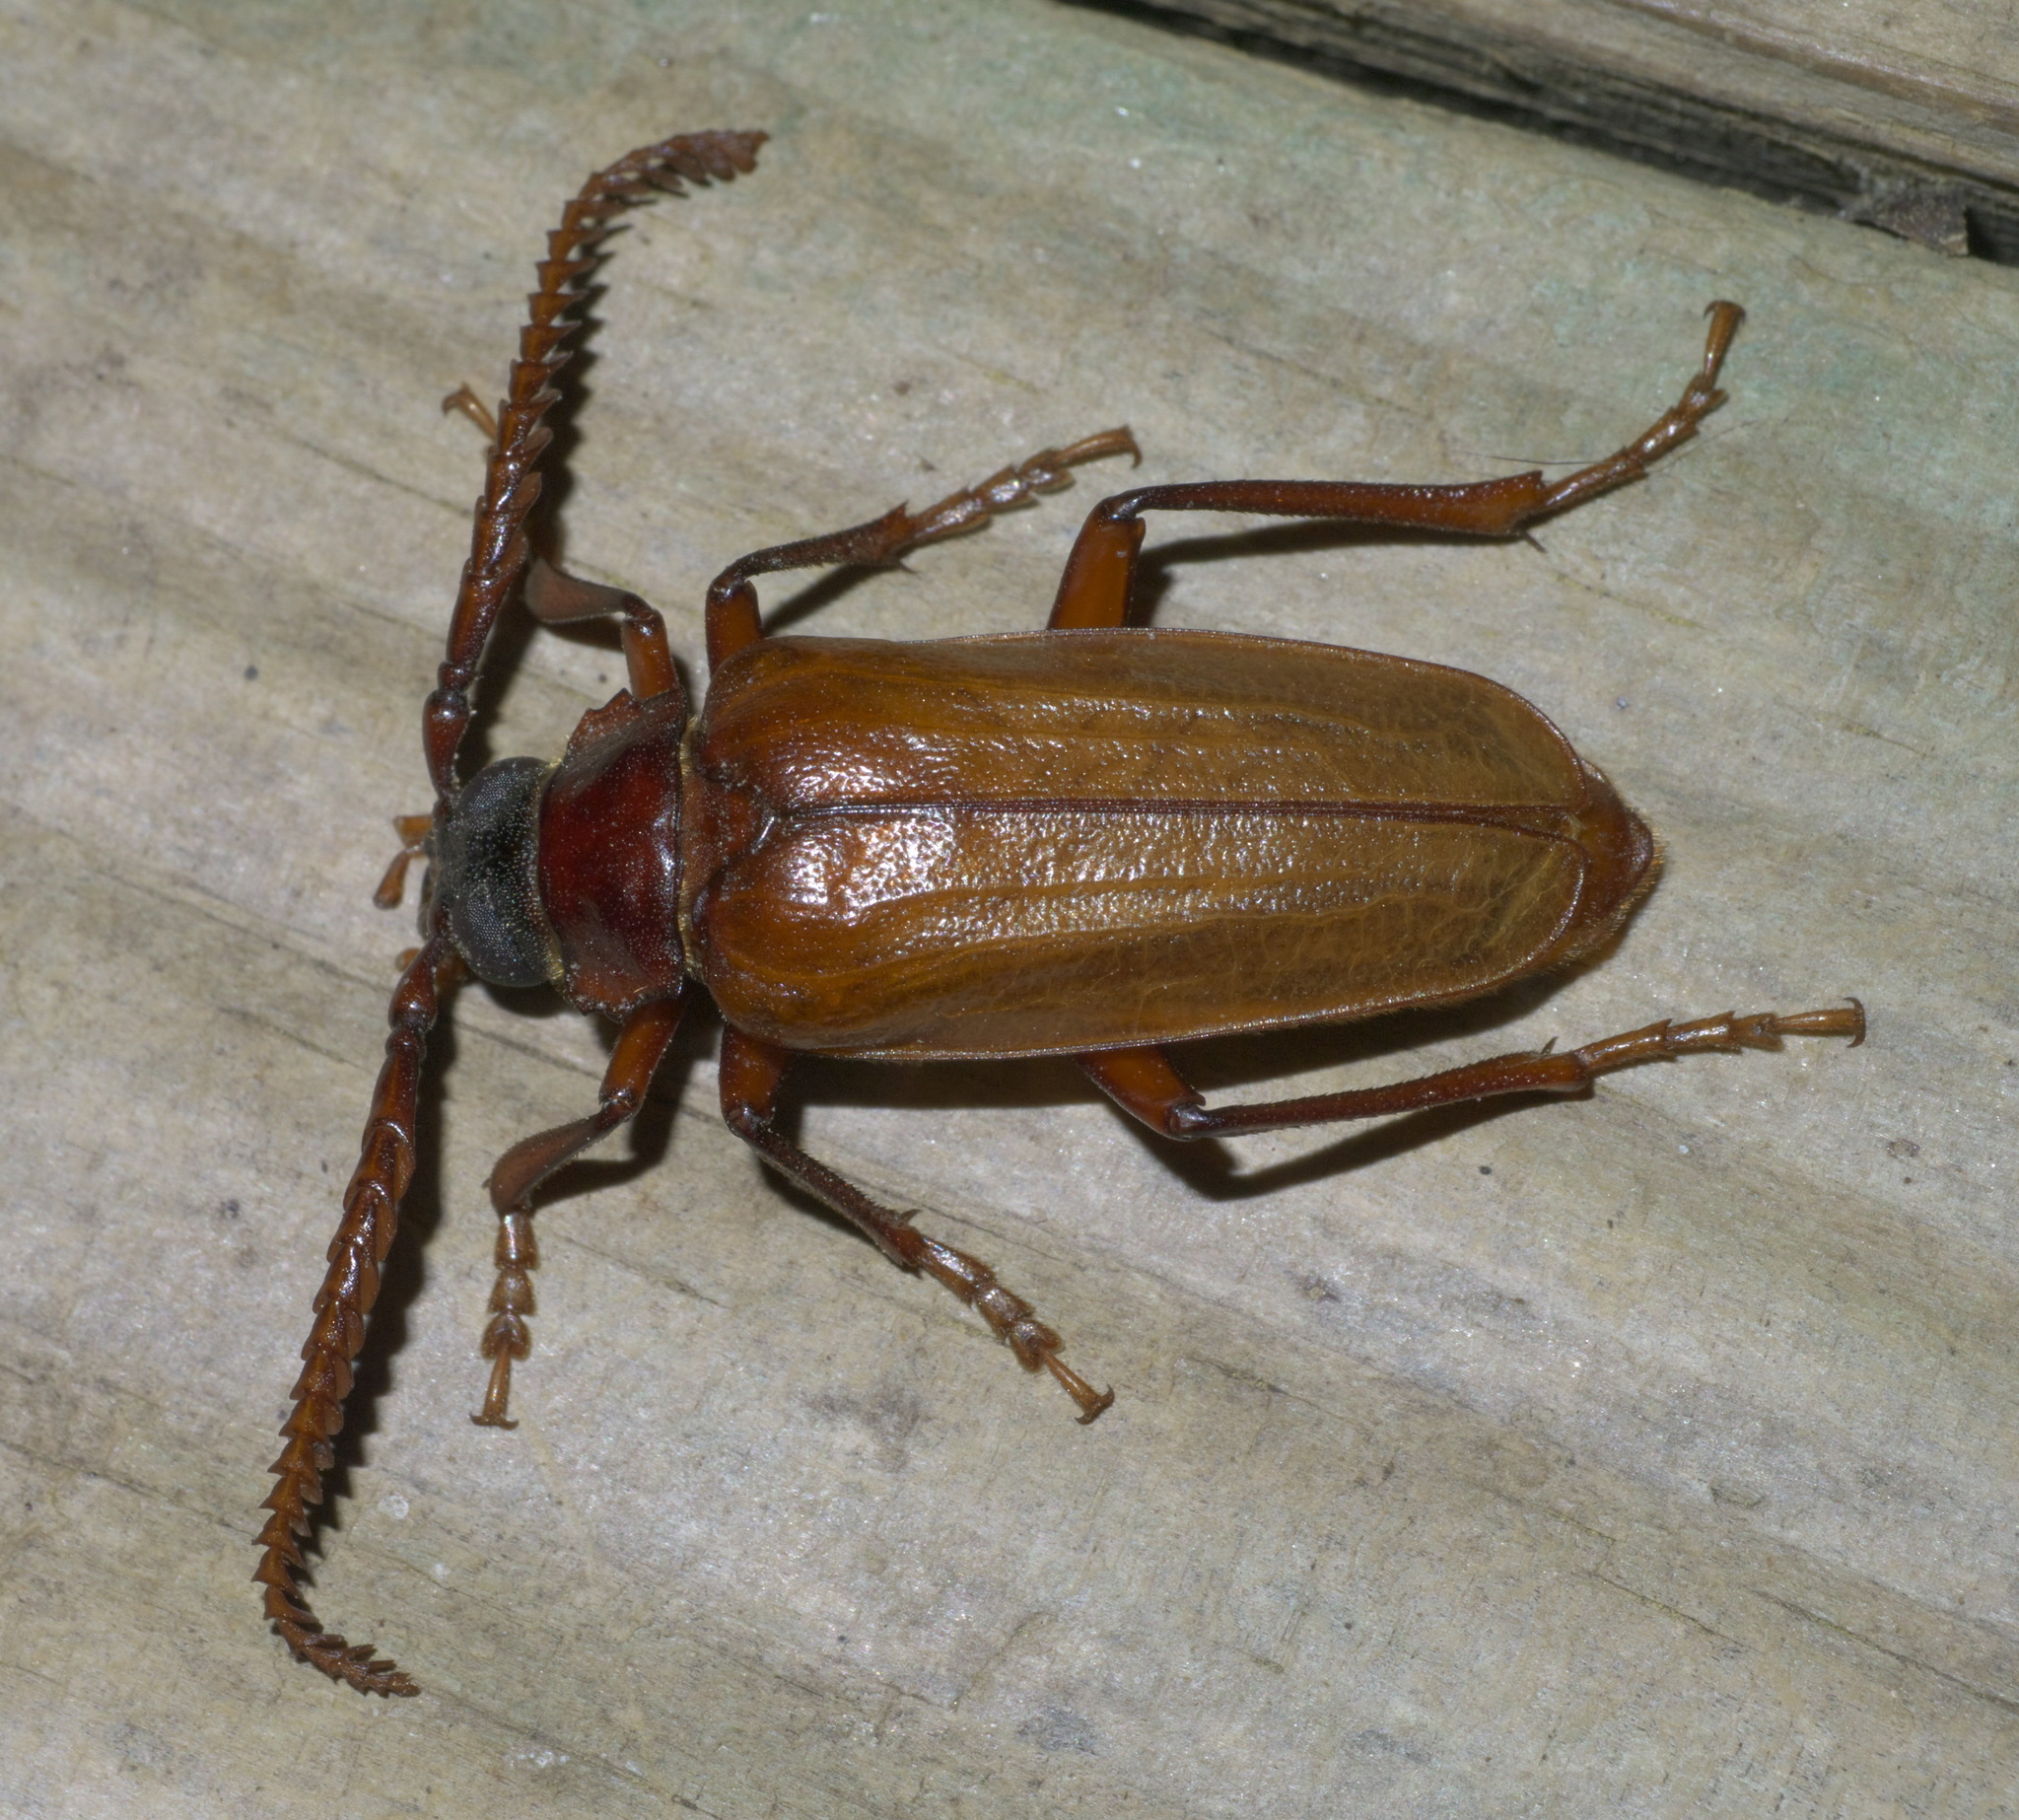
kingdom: Animalia
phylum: Arthropoda
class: Insecta
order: Coleoptera
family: Cerambycidae
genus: Prionus
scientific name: Prionus debilis
